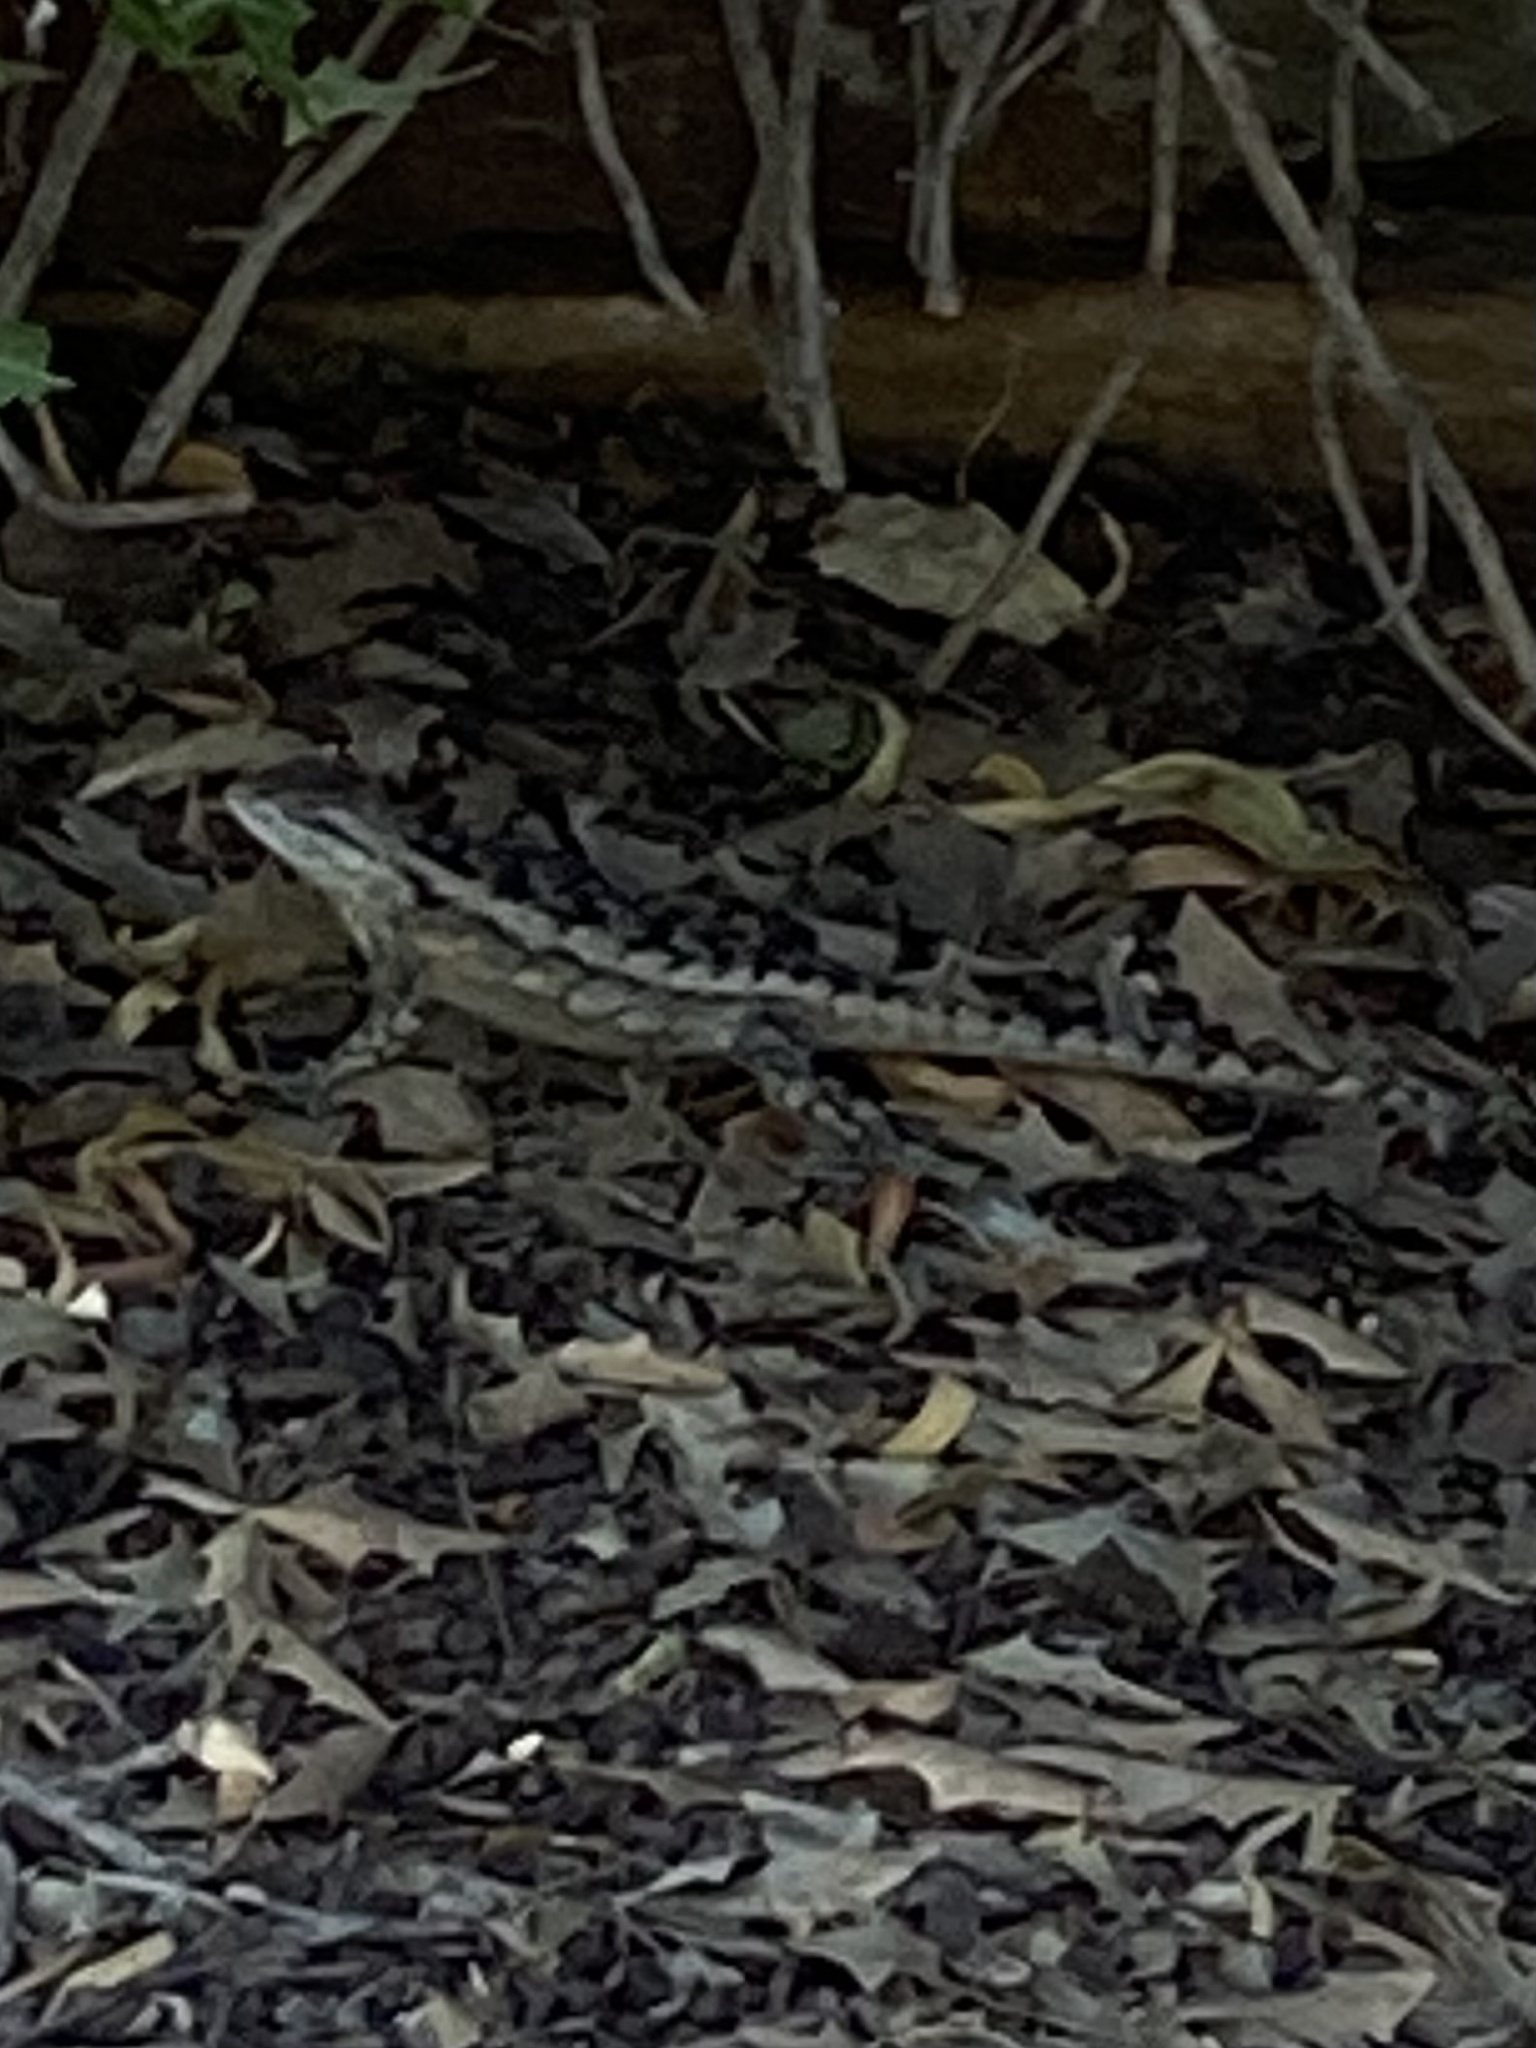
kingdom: Animalia
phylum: Chordata
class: Squamata
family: Phrynosomatidae
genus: Sceloporus
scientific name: Sceloporus olivaceus
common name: Texas spiny lizard
